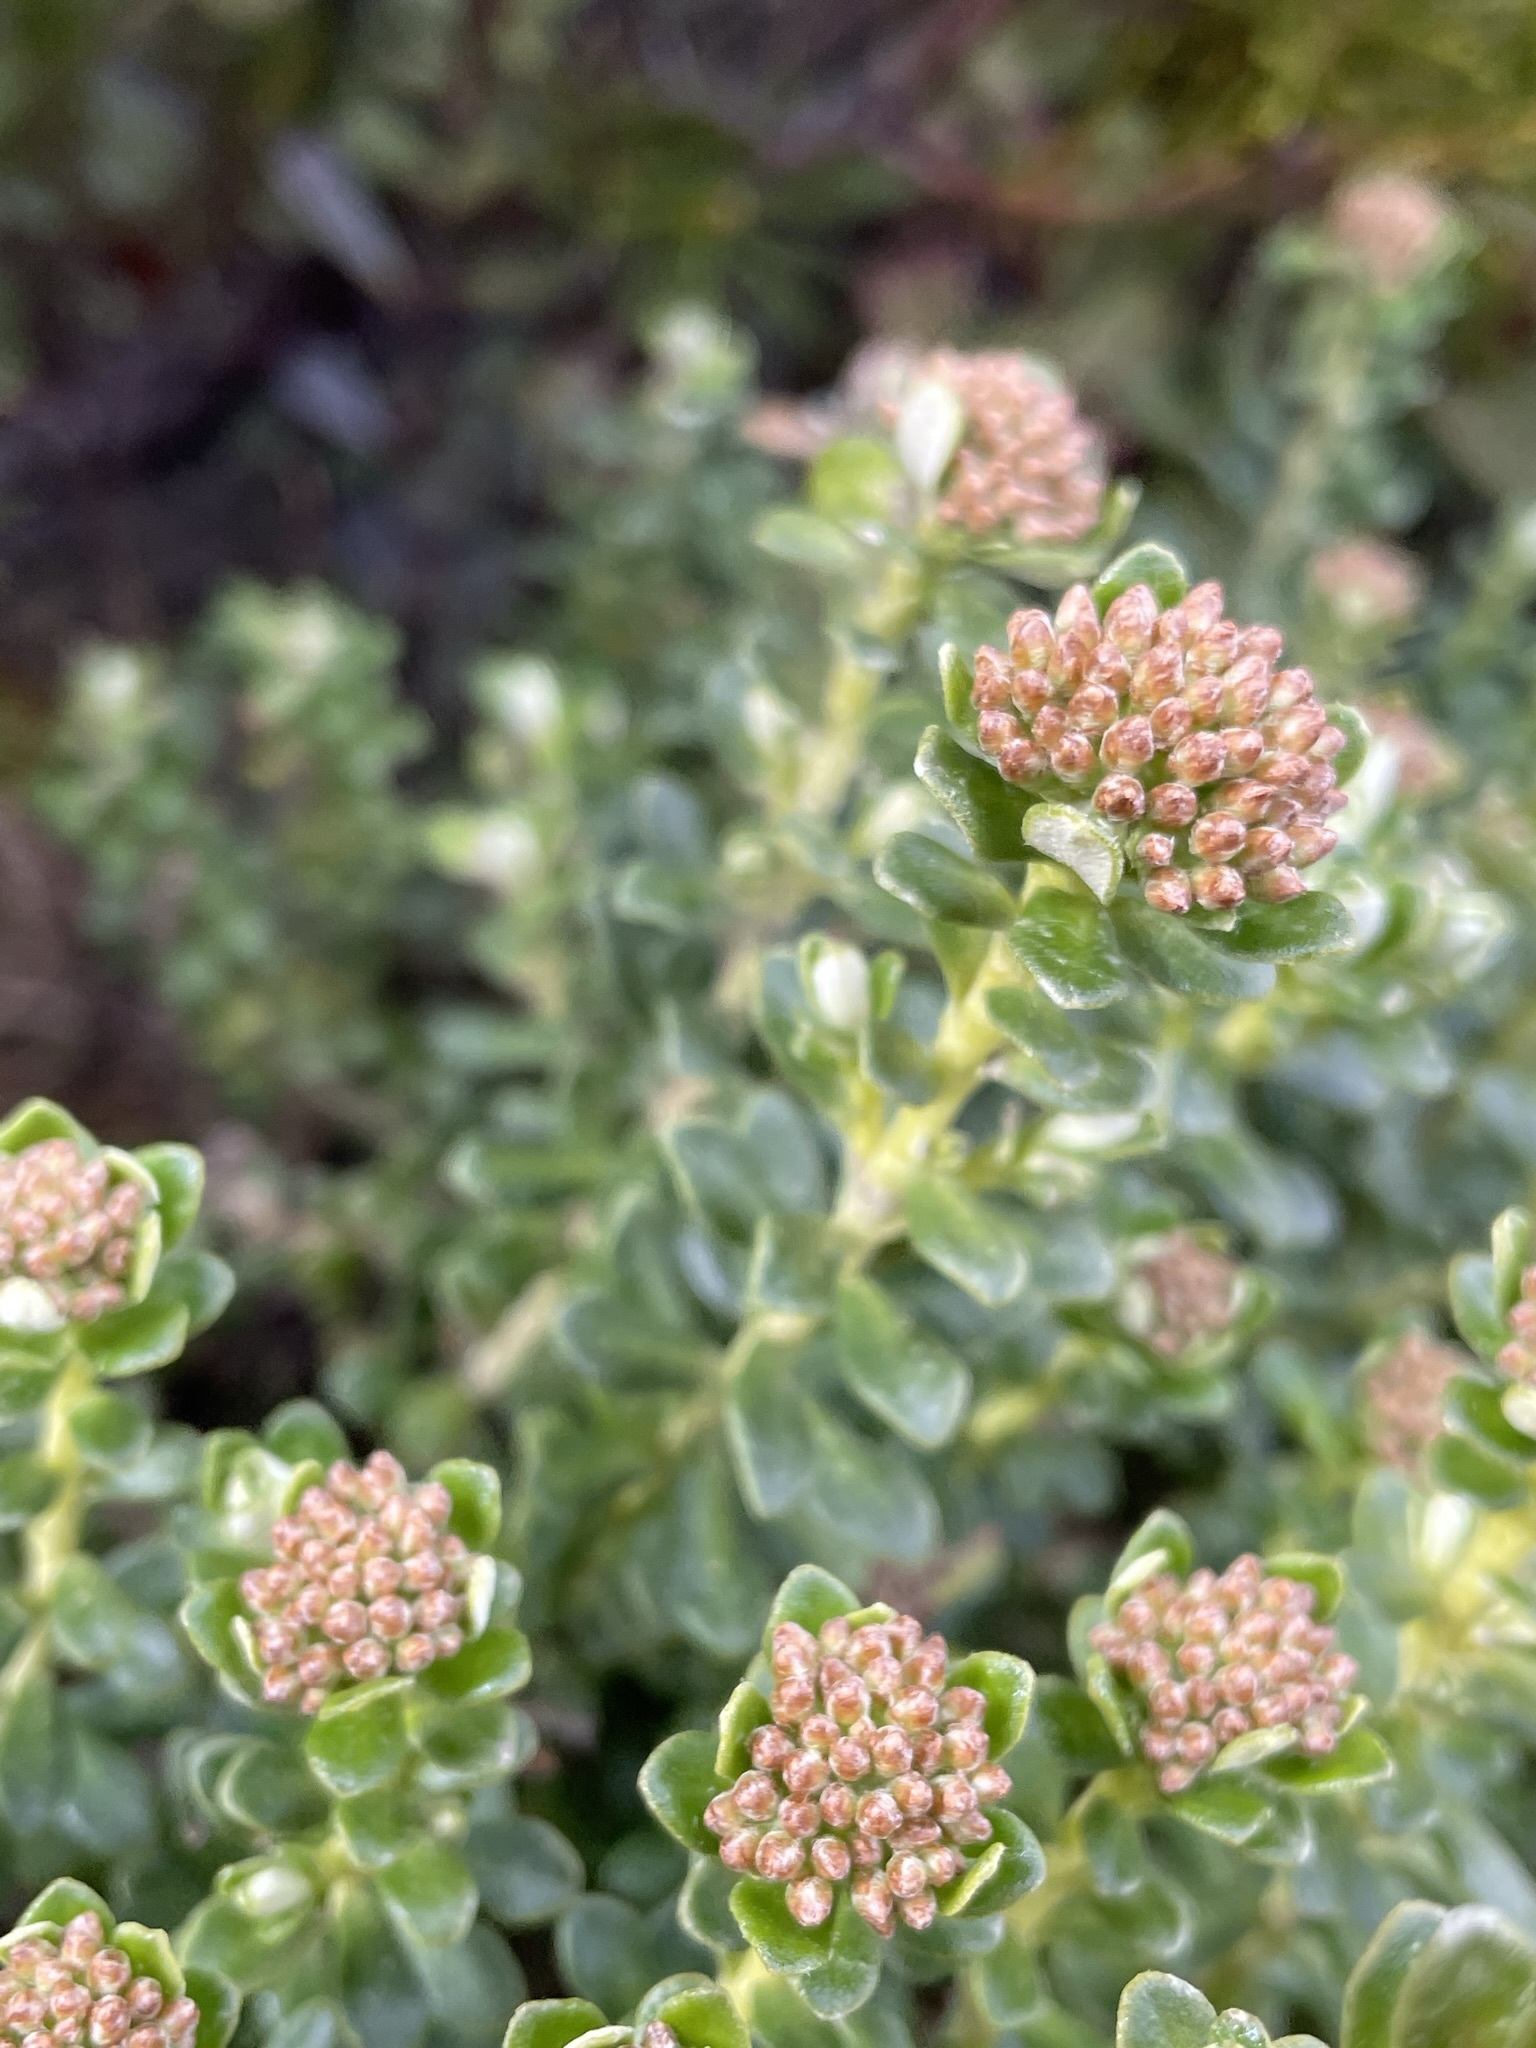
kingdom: Plantae
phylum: Tracheophyta
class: Magnoliopsida
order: Asterales
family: Asteraceae
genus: Ozothamnus
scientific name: Ozothamnus rodwayi
